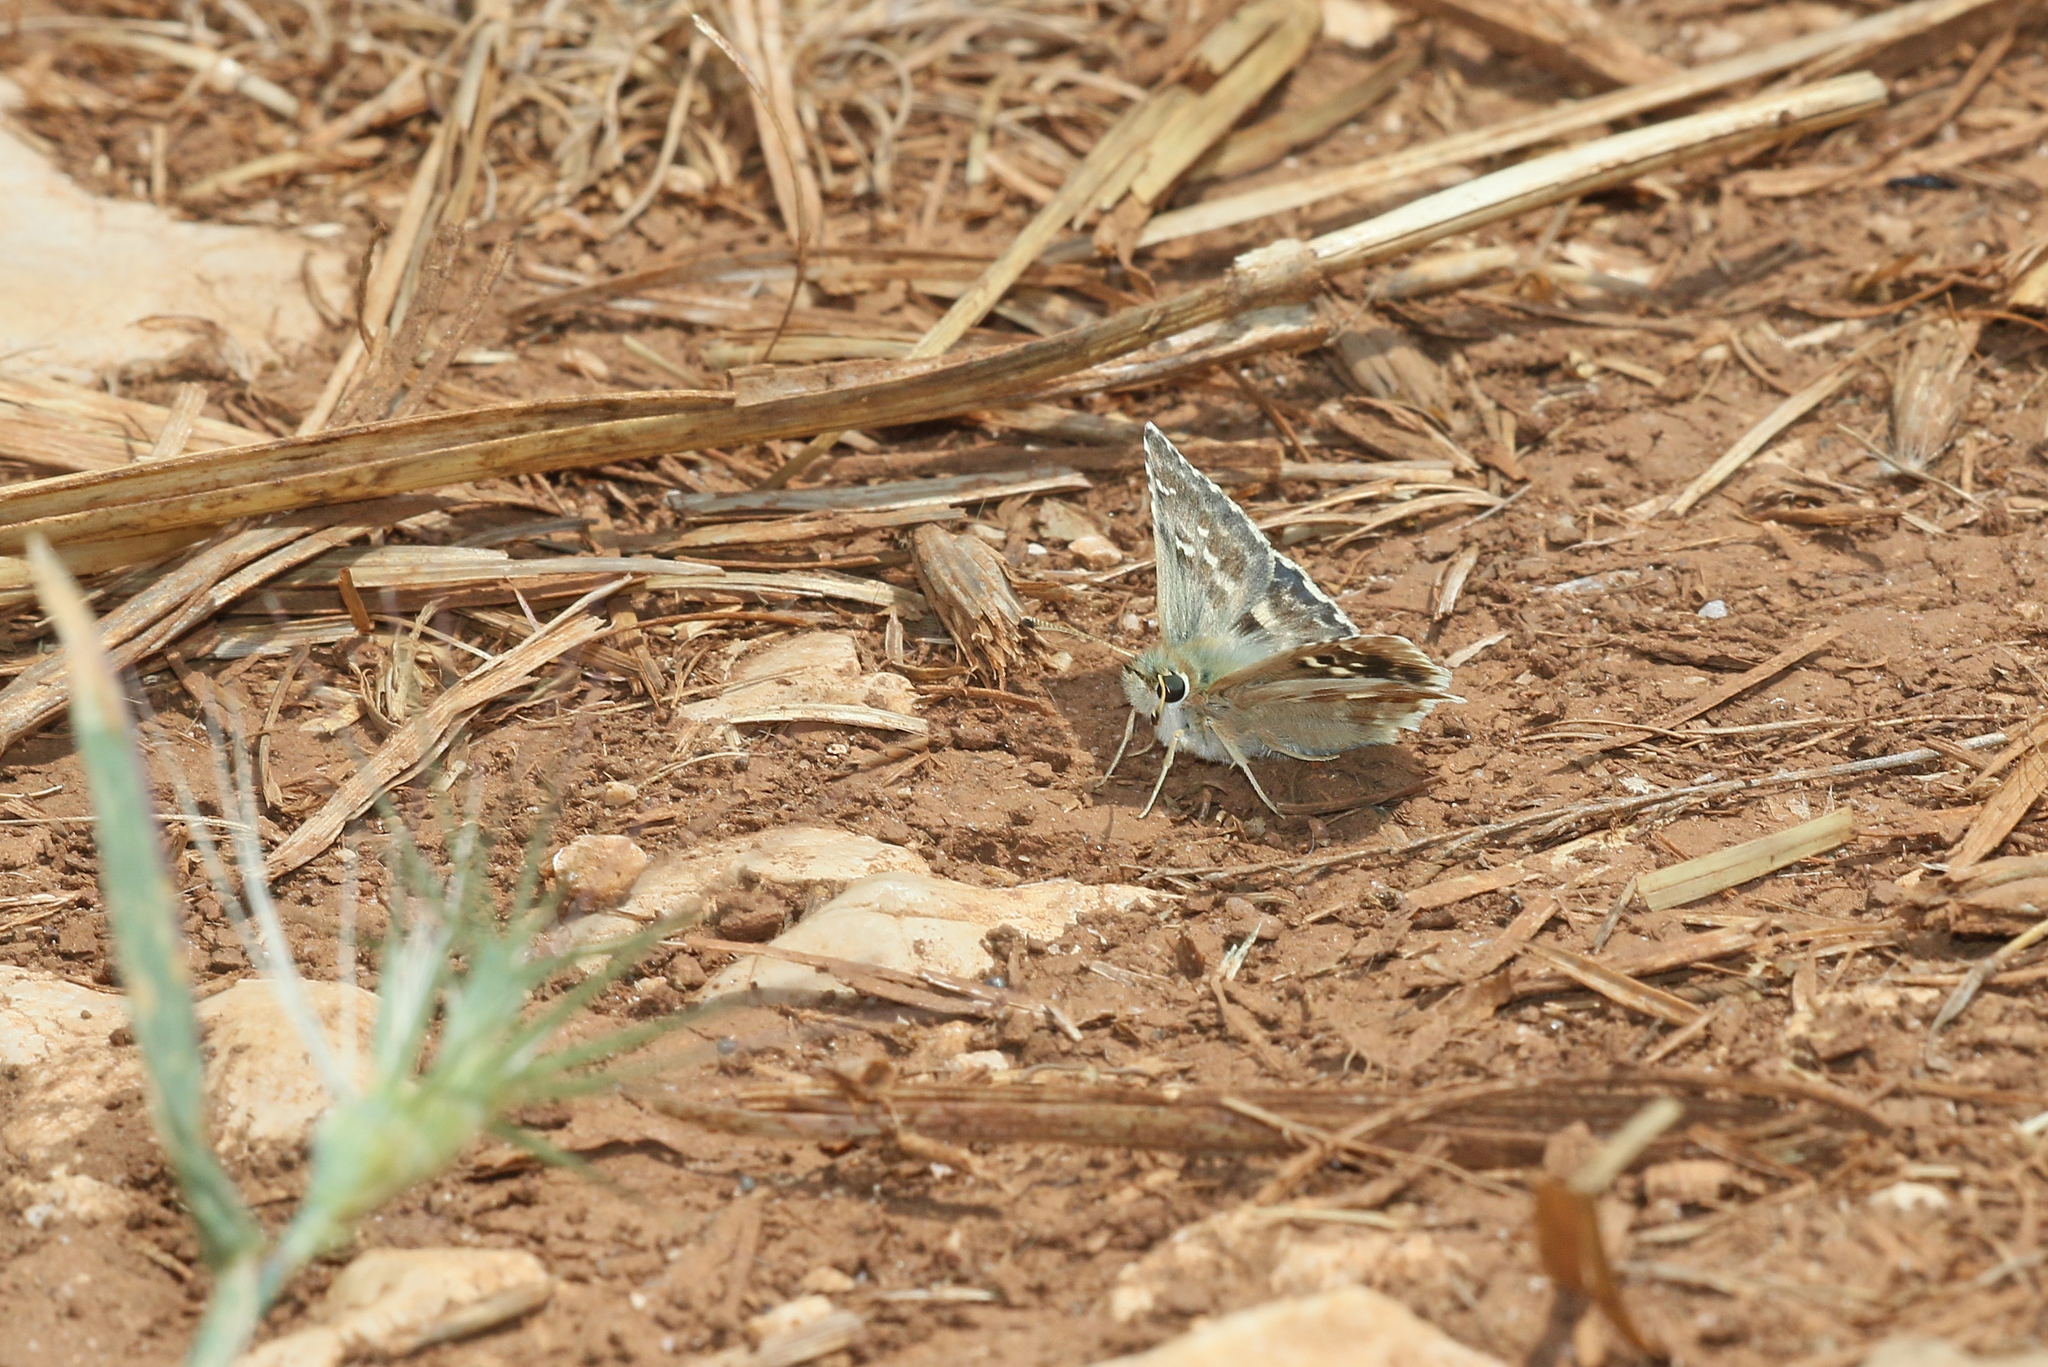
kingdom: Animalia
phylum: Arthropoda
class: Insecta
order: Lepidoptera
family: Hesperiidae
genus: Syrichtus
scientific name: Syrichtus Muschampia proto
